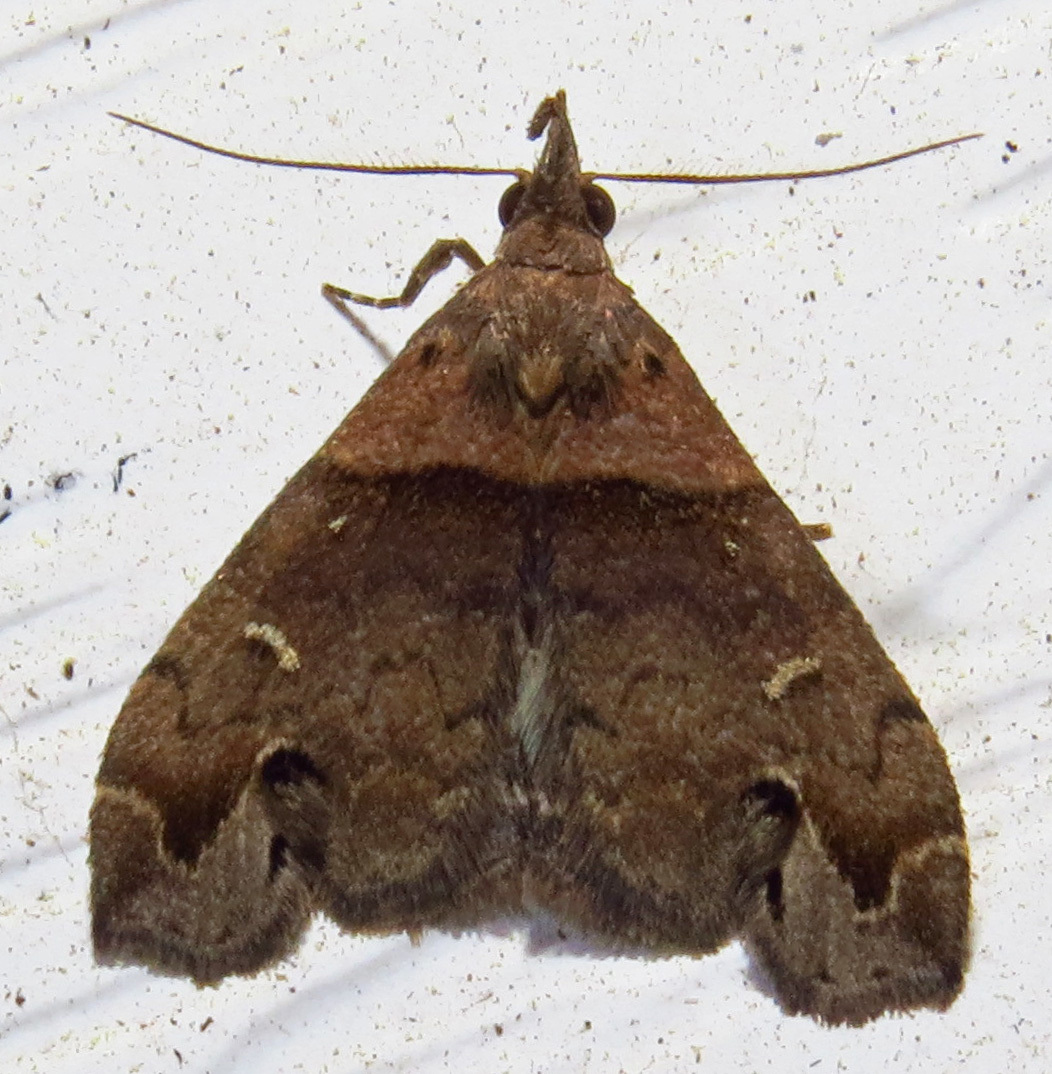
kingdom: Animalia
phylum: Arthropoda
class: Insecta
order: Lepidoptera
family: Erebidae
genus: Lascoria
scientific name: Lascoria ambigualis
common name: Ambiguous moth
